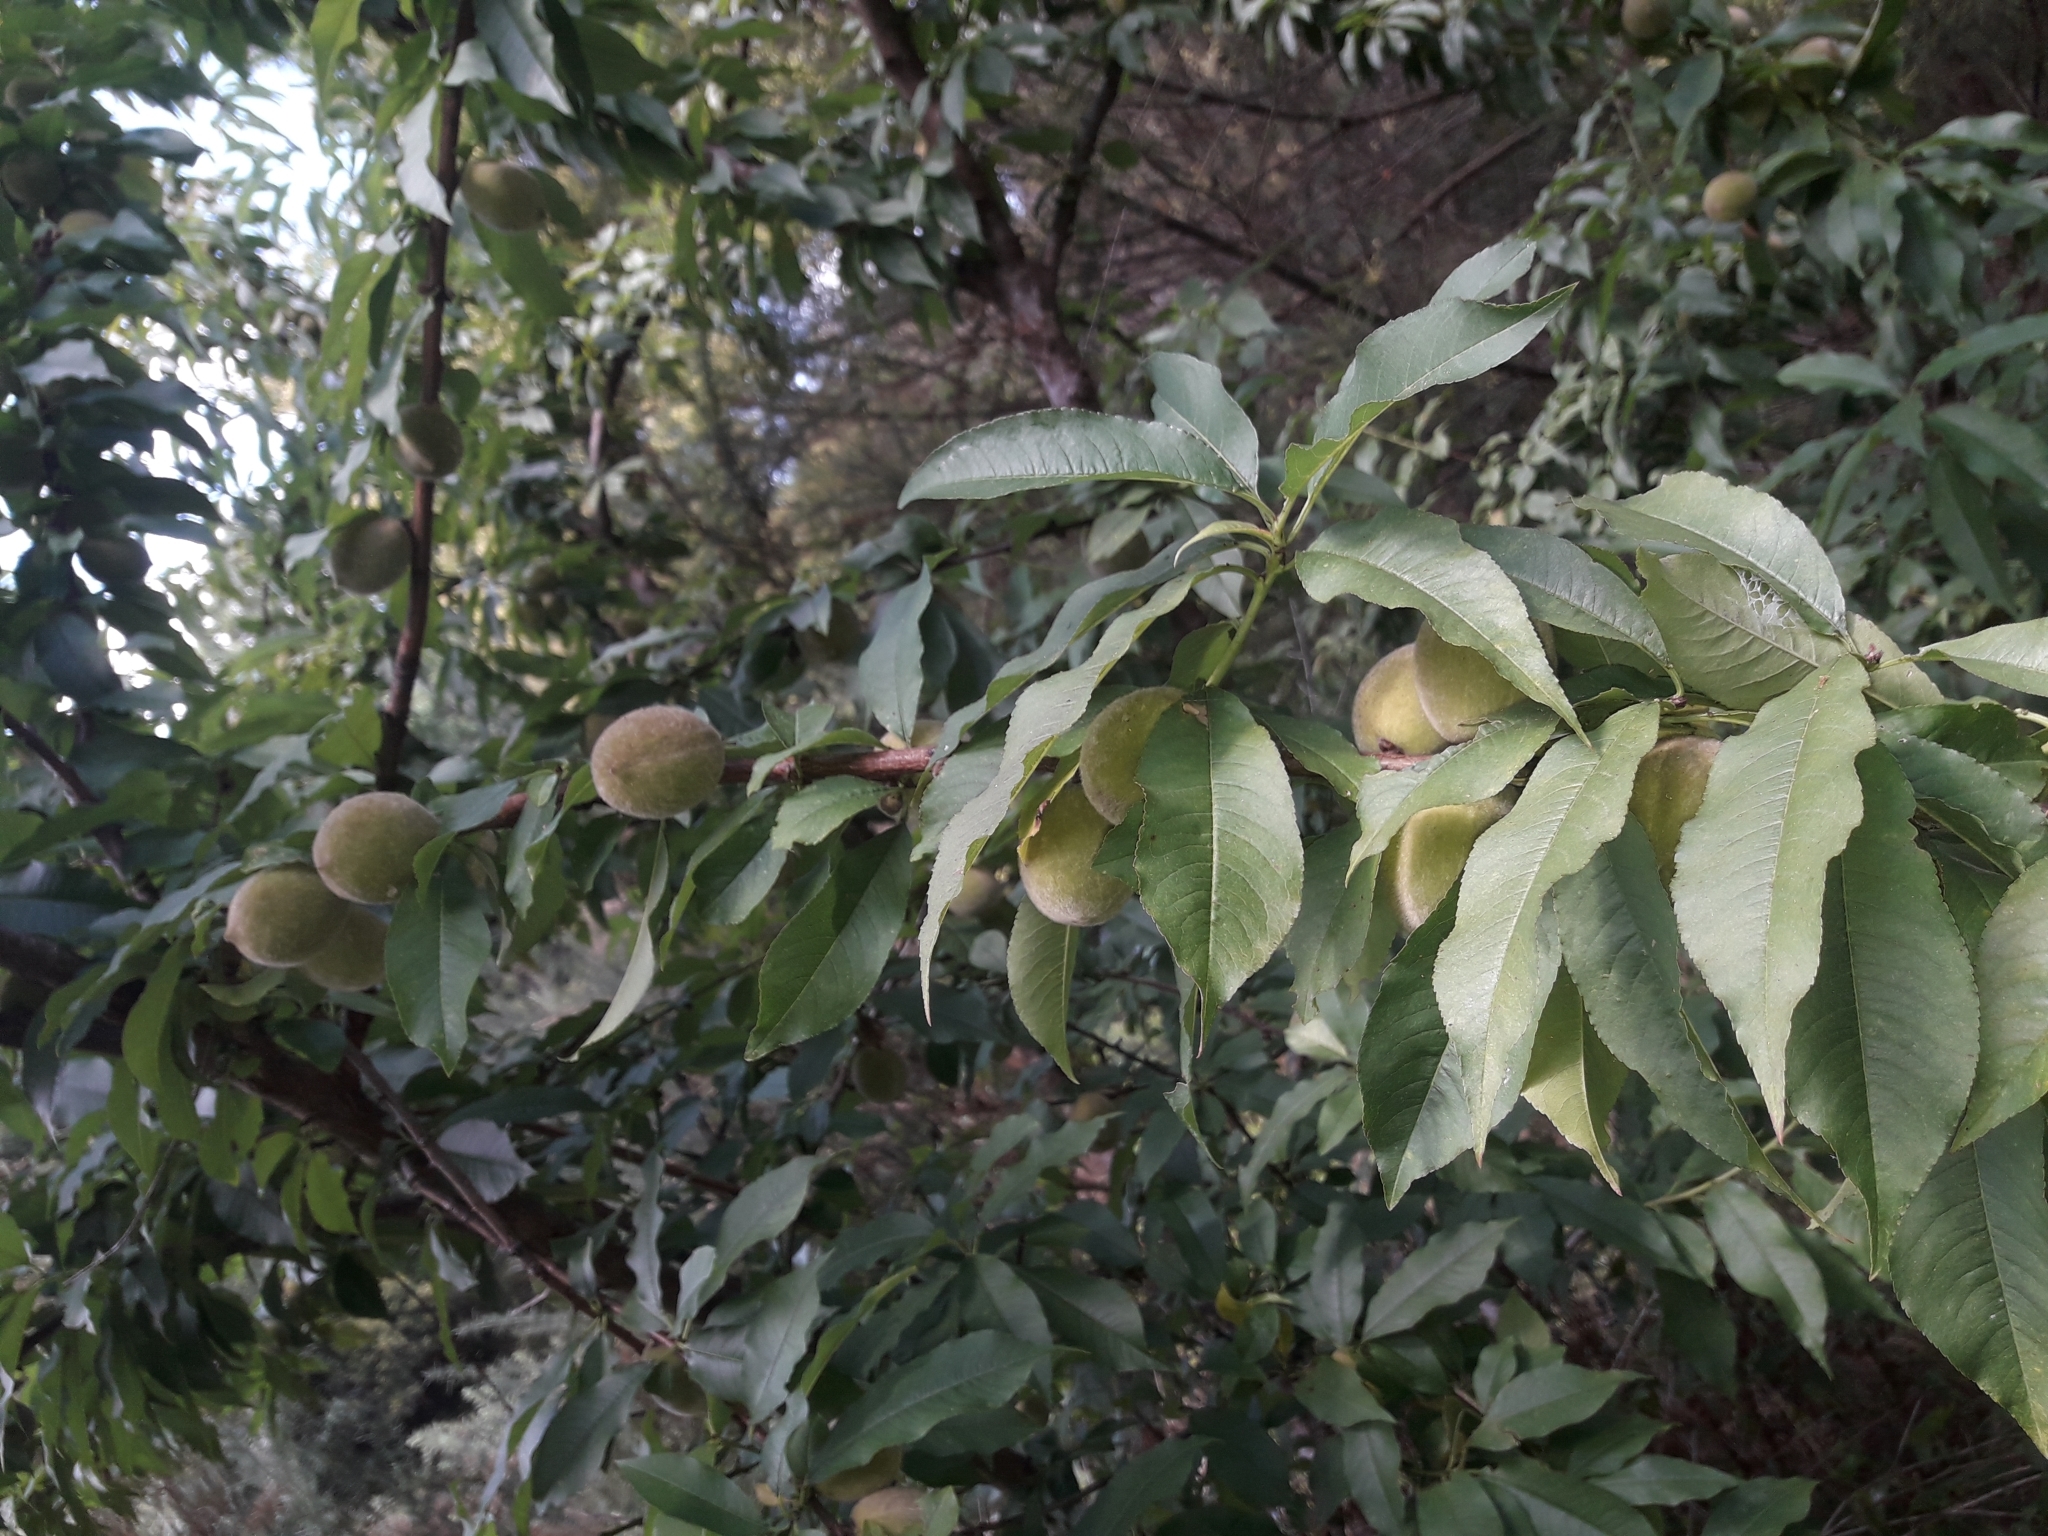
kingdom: Plantae
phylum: Tracheophyta
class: Magnoliopsida
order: Rosales
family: Rosaceae
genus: Prunus
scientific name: Prunus persica
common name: Peach
